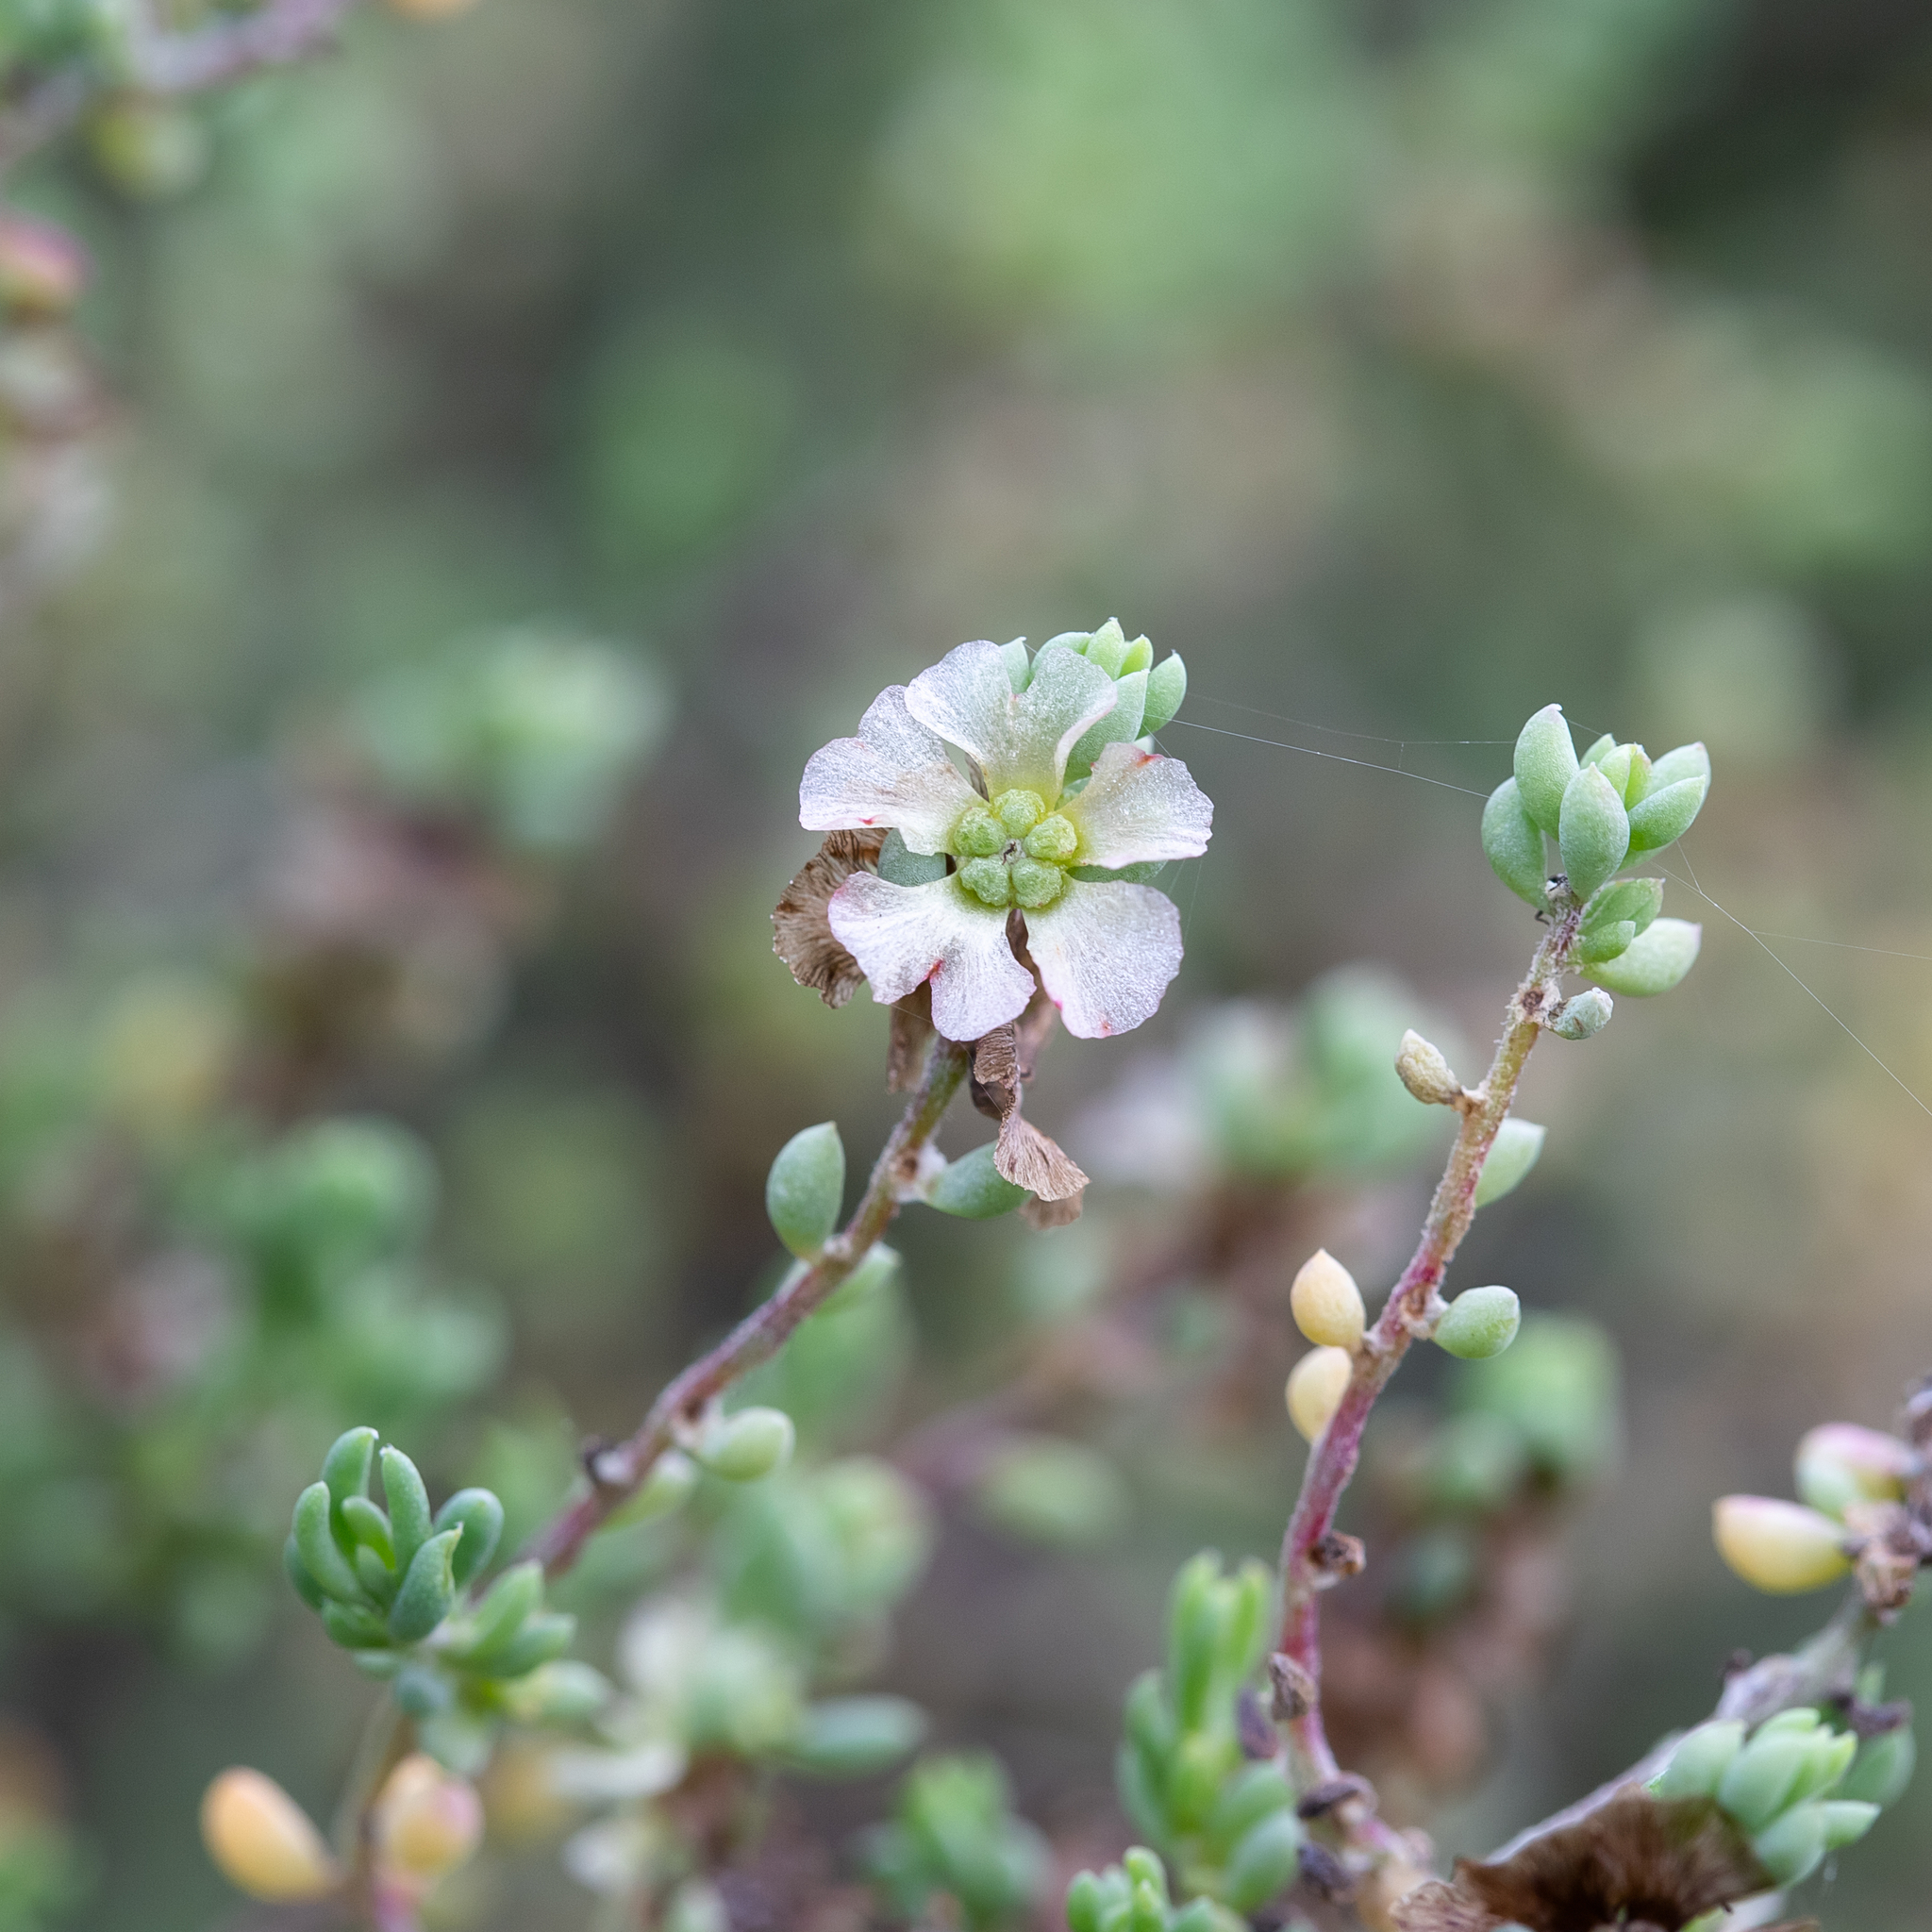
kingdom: Plantae
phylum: Tracheophyta
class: Magnoliopsida
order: Caryophyllales
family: Amaranthaceae
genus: Maireana
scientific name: Maireana brevifolia
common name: Eastern cottonbush
